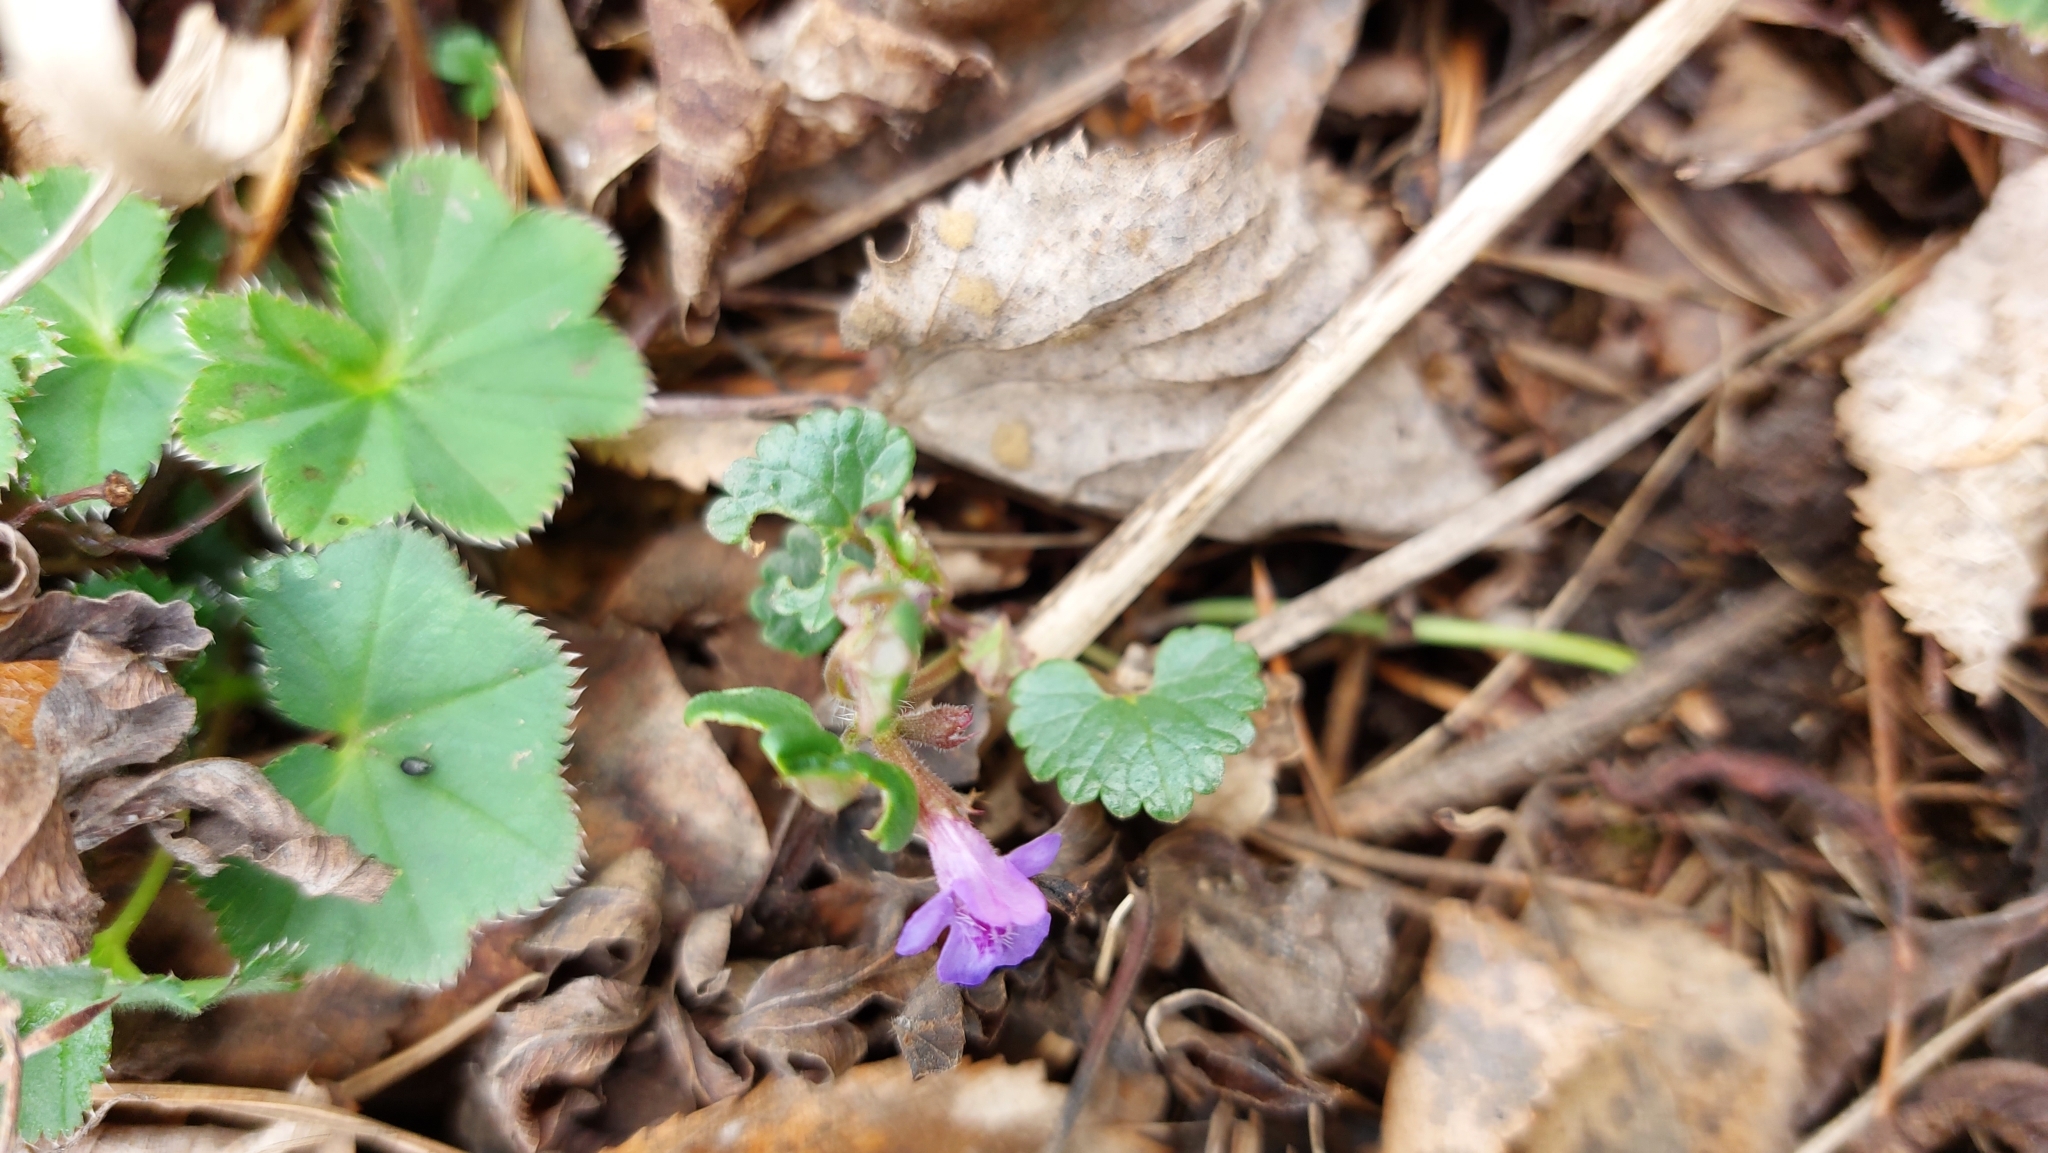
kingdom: Plantae
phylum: Tracheophyta
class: Magnoliopsida
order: Lamiales
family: Lamiaceae
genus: Glechoma
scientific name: Glechoma hederacea
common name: Ground ivy
